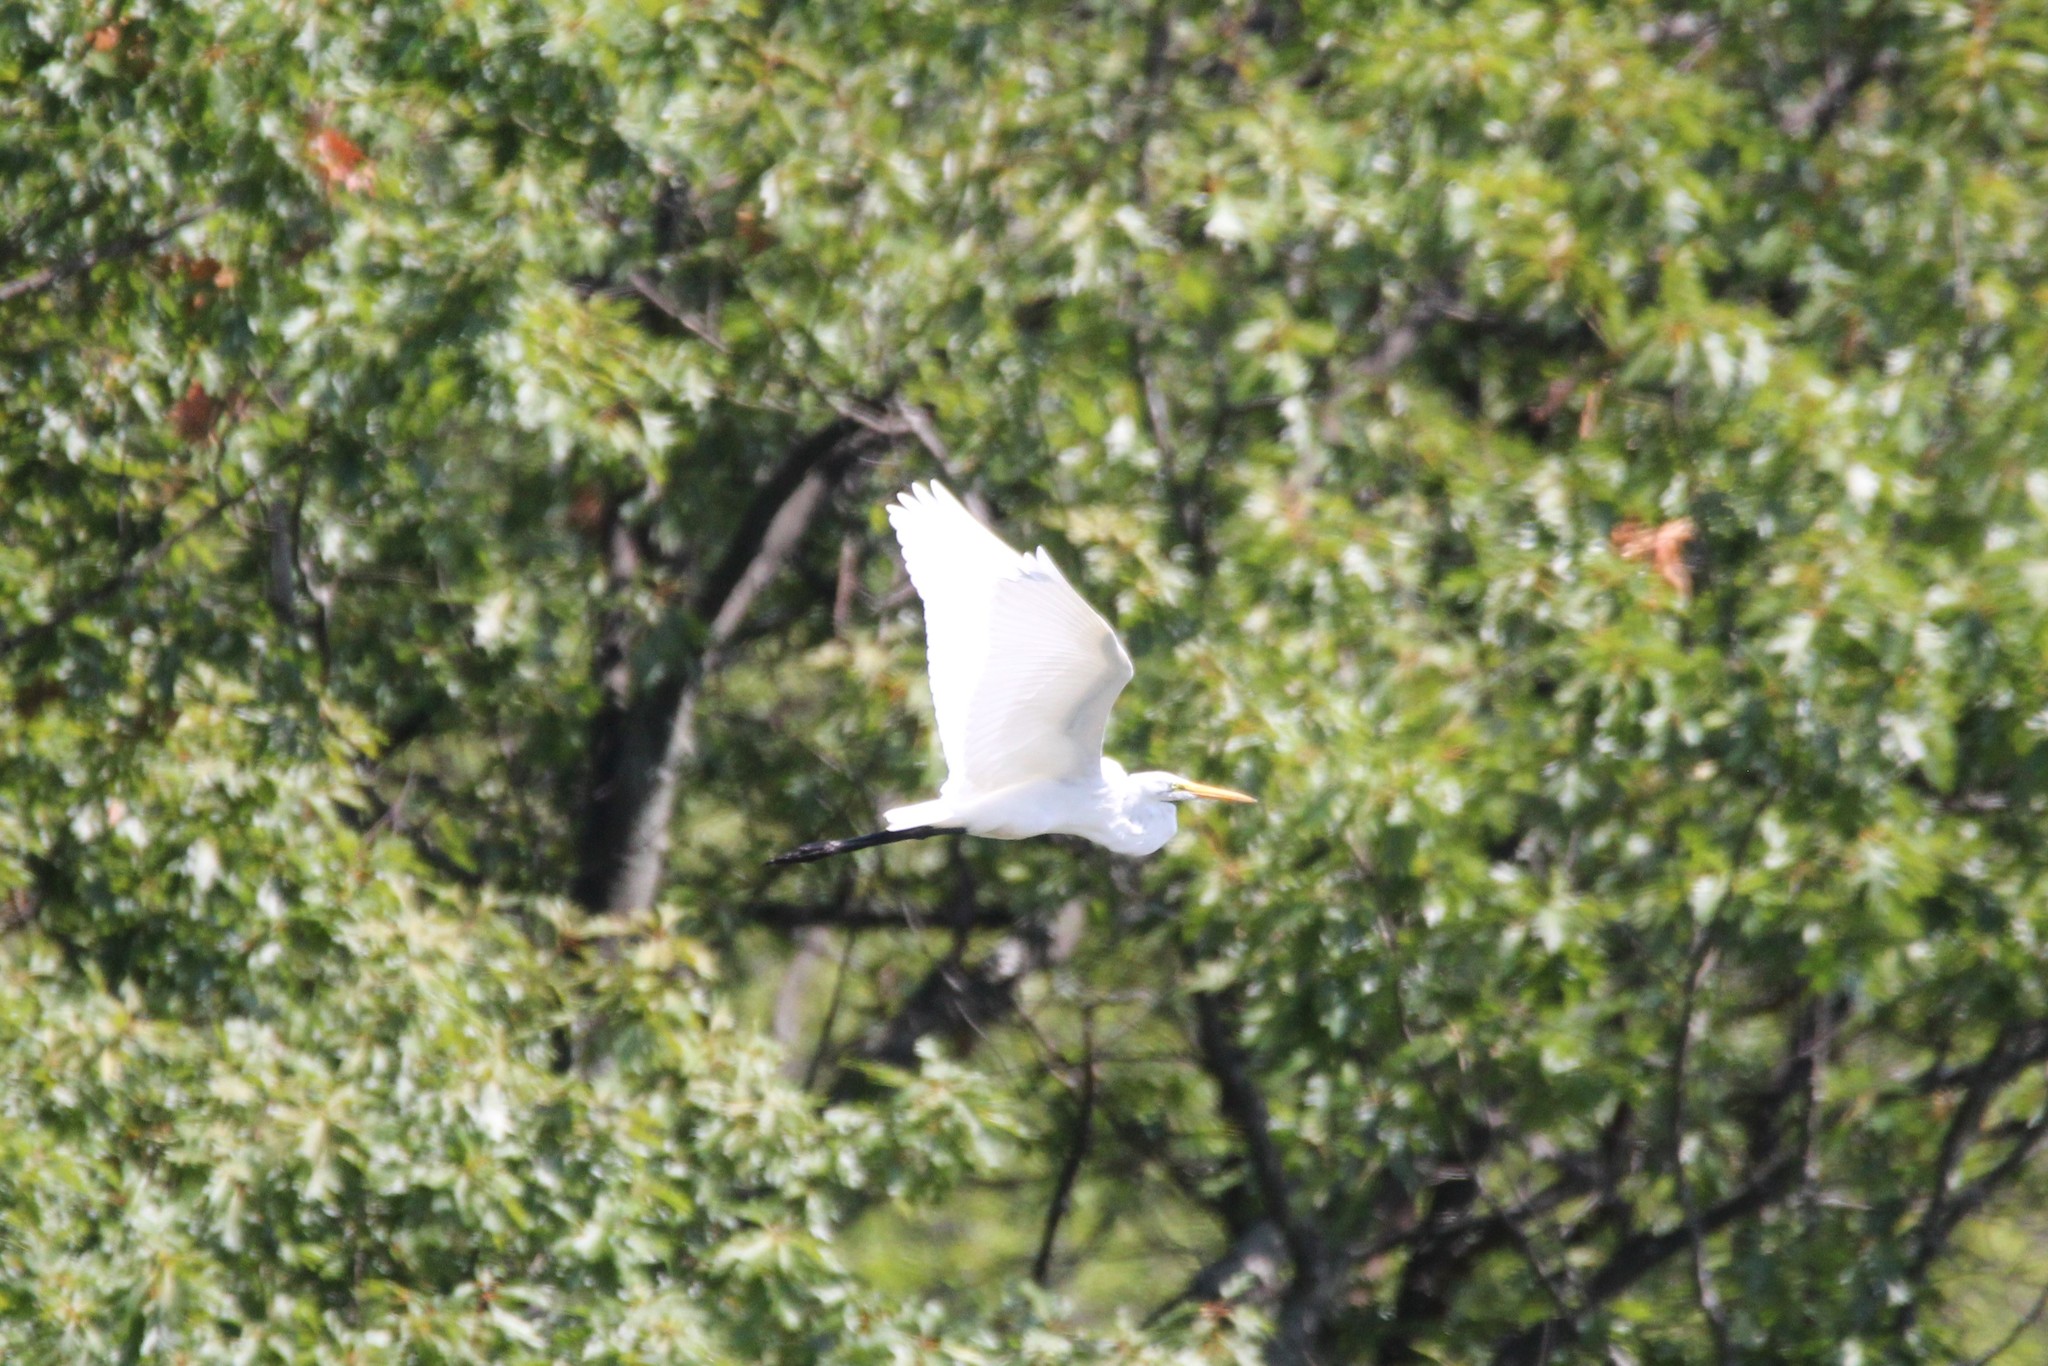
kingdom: Animalia
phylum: Chordata
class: Aves
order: Pelecaniformes
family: Ardeidae
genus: Ardea
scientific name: Ardea alba
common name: Great egret
